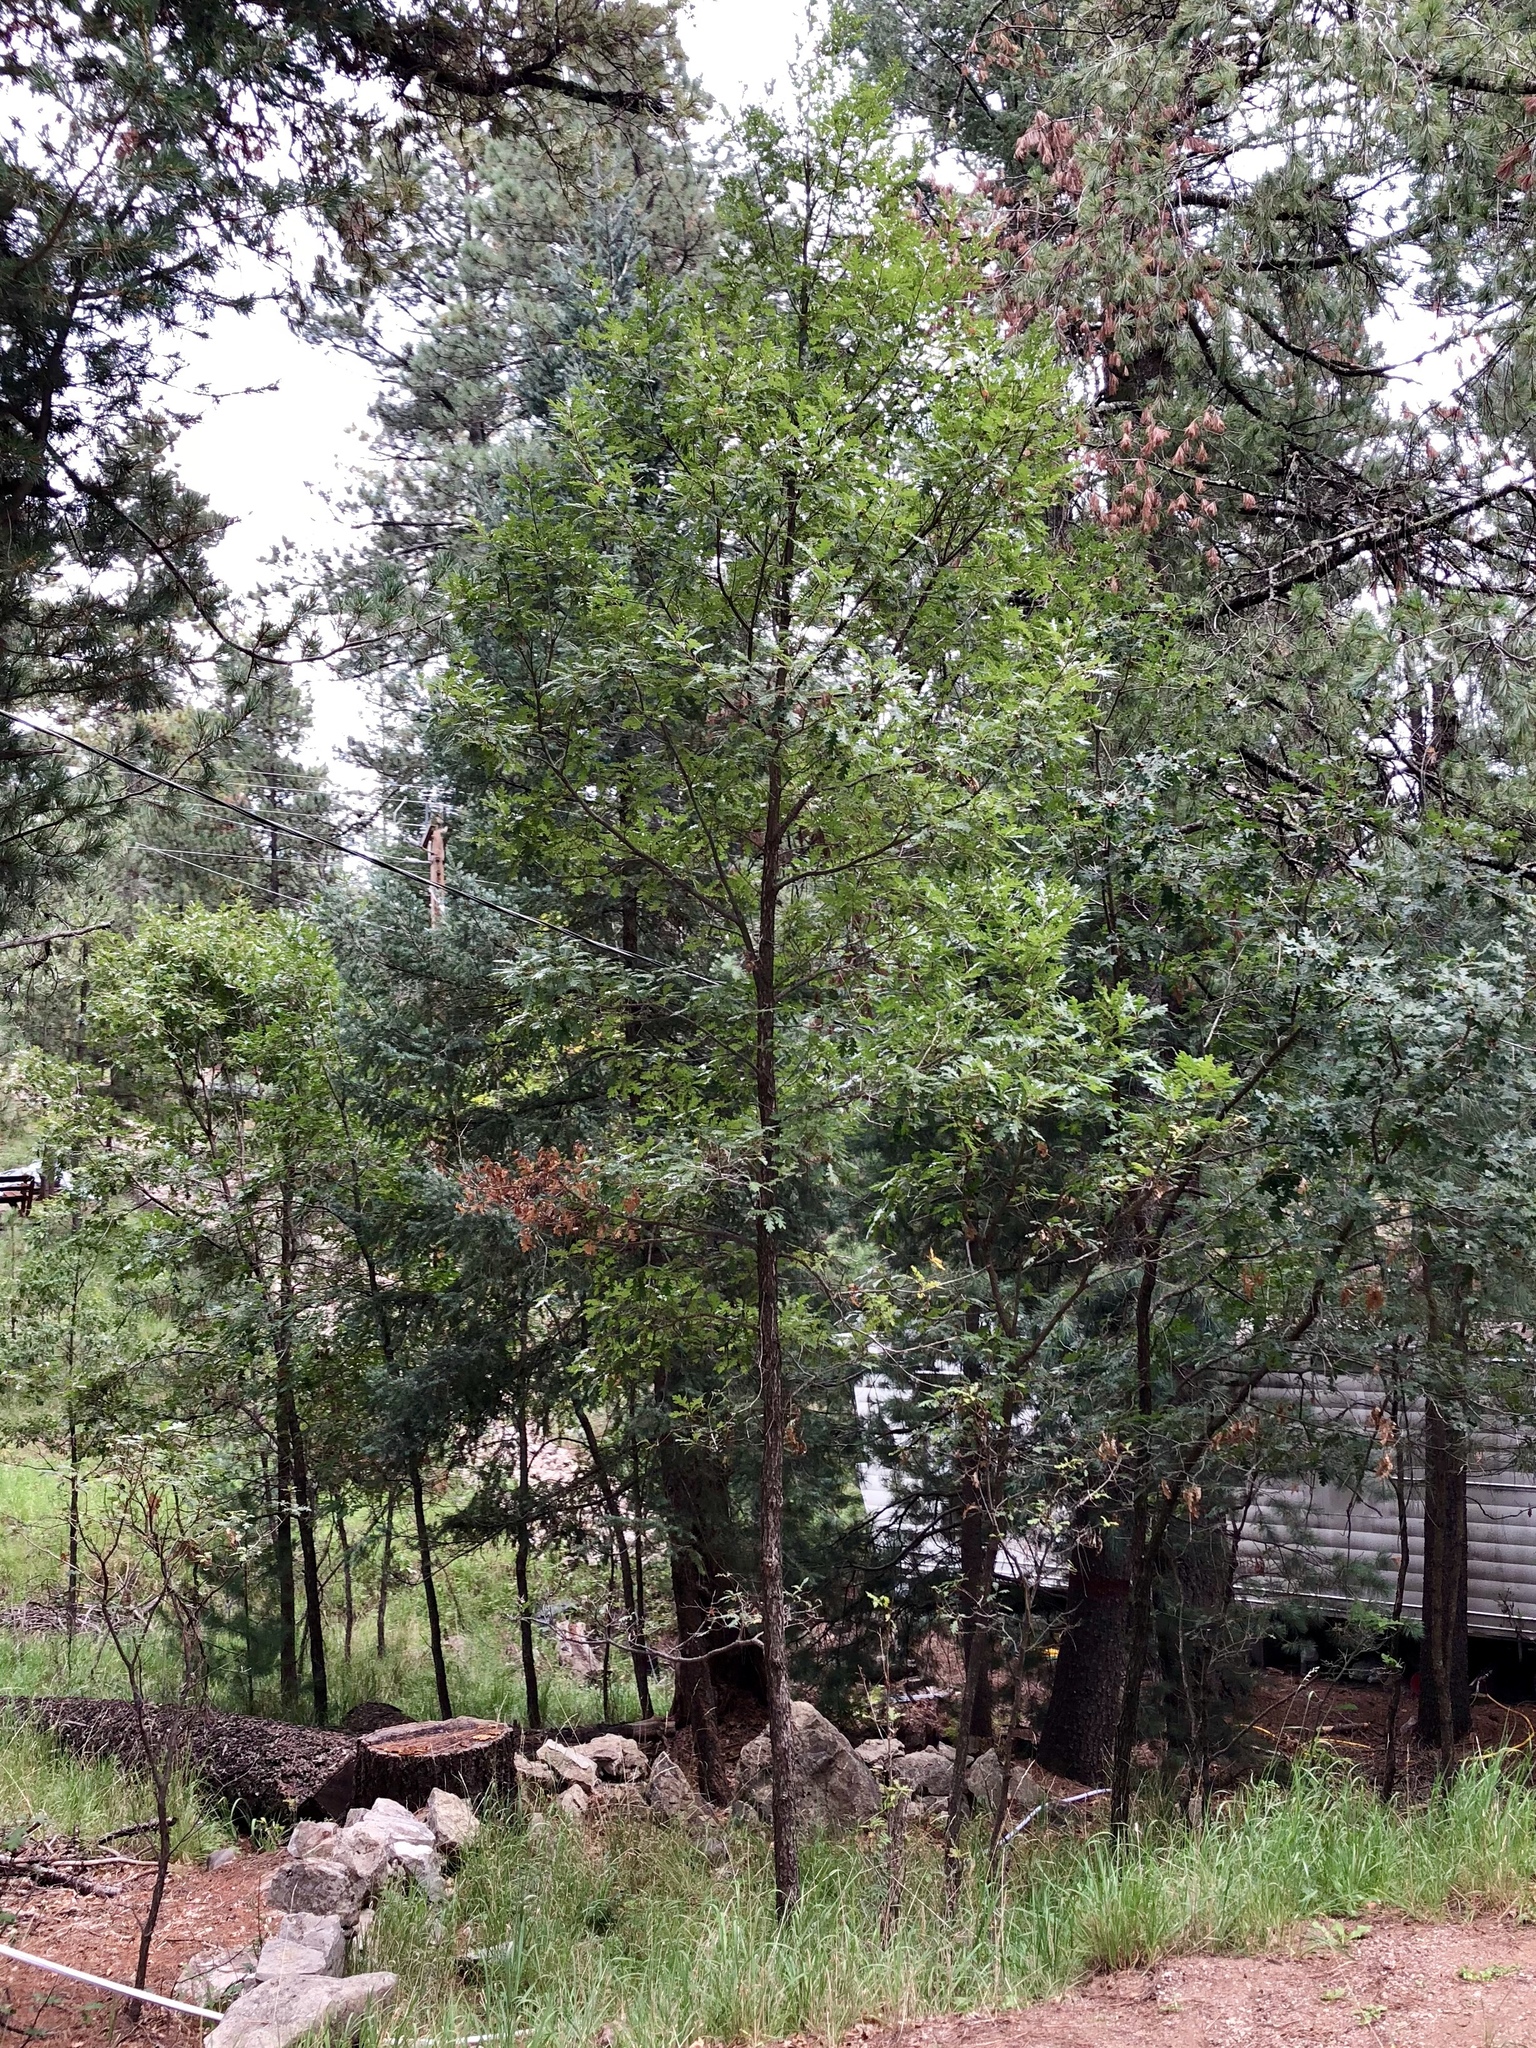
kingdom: Plantae
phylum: Tracheophyta
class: Magnoliopsida
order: Fagales
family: Fagaceae
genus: Quercus
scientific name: Quercus gambelii
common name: Gambel oak
